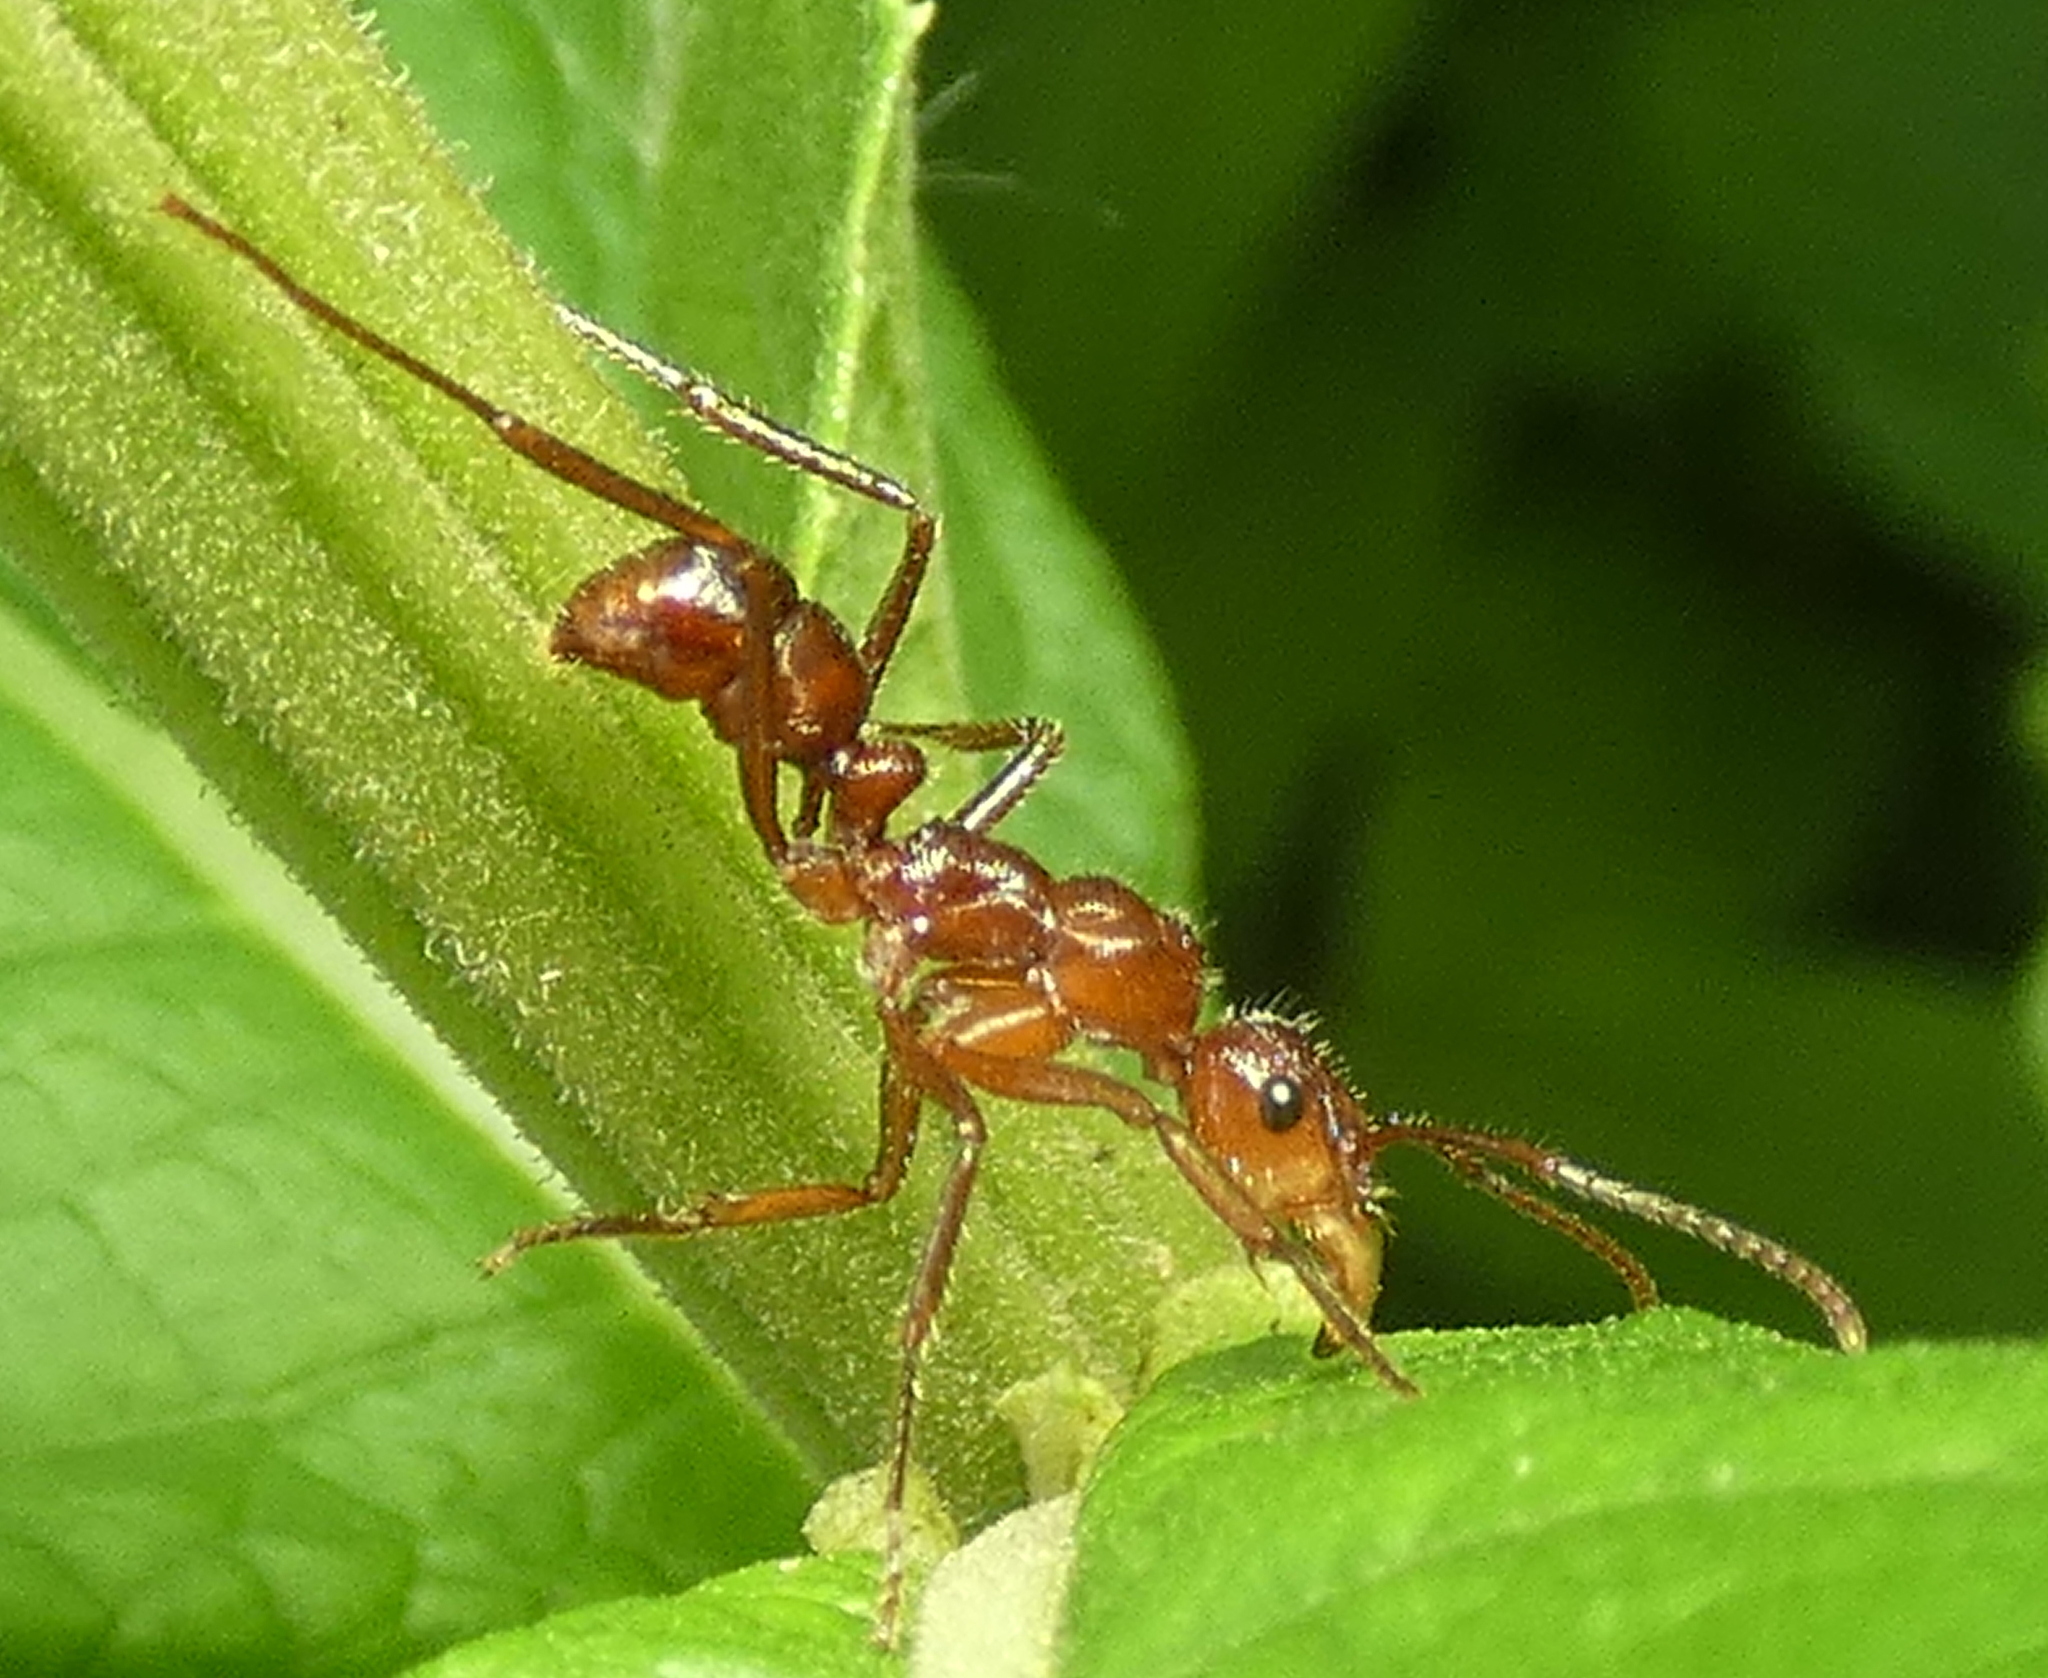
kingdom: Animalia
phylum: Arthropoda
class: Insecta
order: Hymenoptera
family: Formicidae
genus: Ectatomma
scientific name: Ectatomma tuberculatum
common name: Ant
